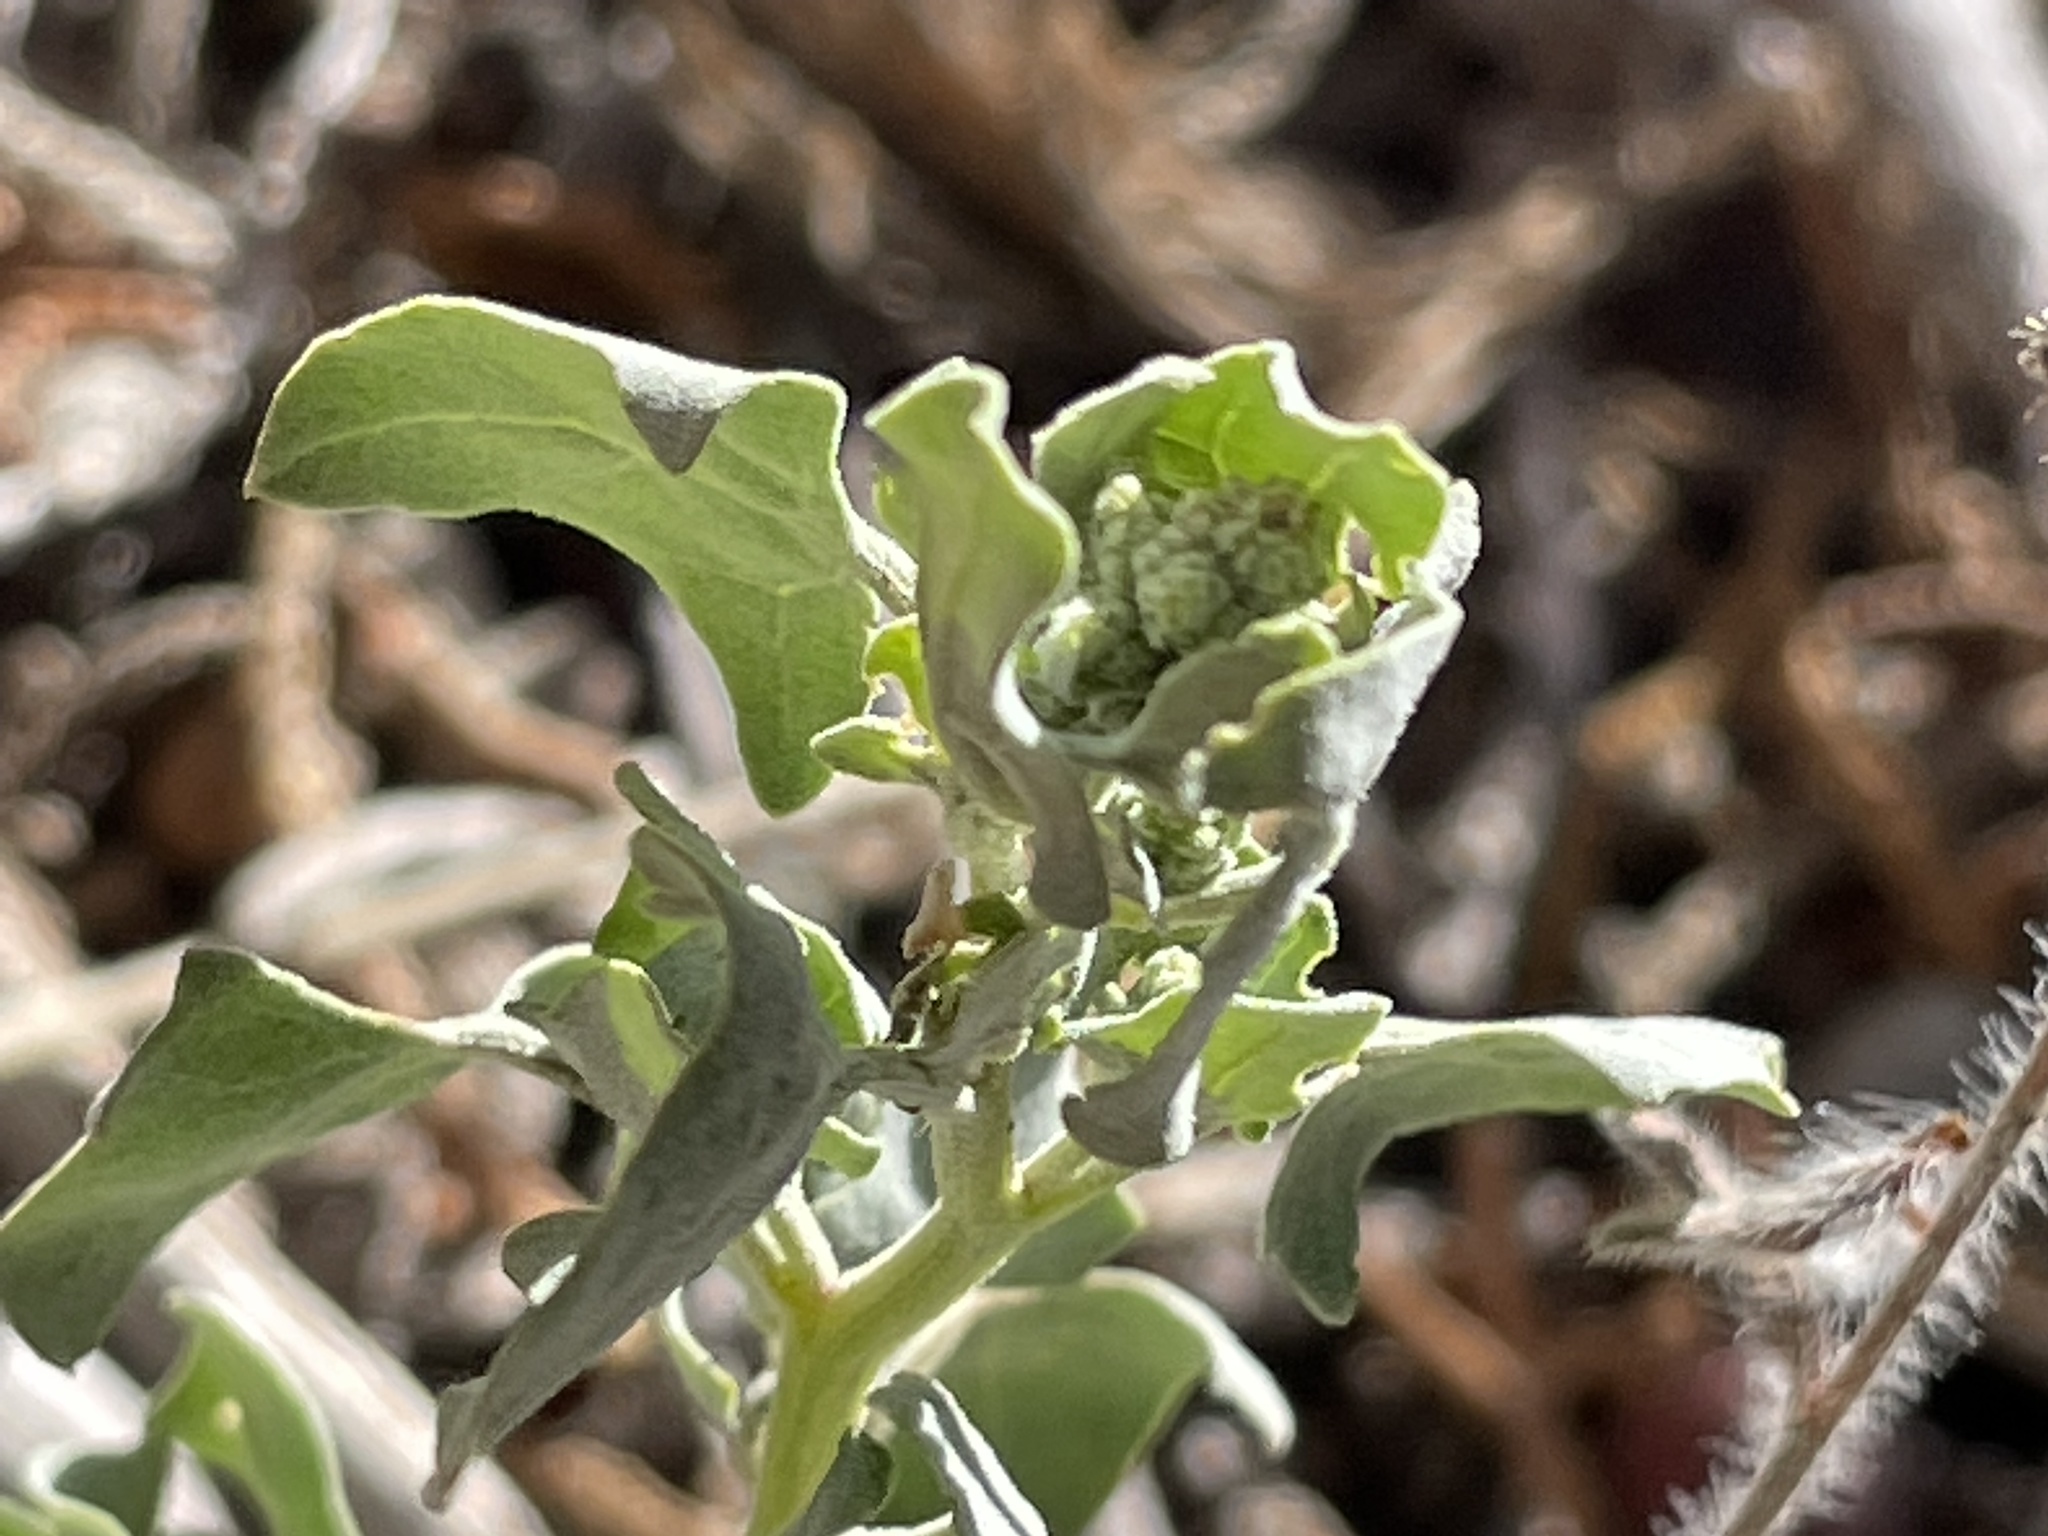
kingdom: Plantae
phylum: Tracheophyta
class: Magnoliopsida
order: Caryophyllales
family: Amaranthaceae
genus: Chenopodium
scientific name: Chenopodium incanum
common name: Hoary goosefoot
